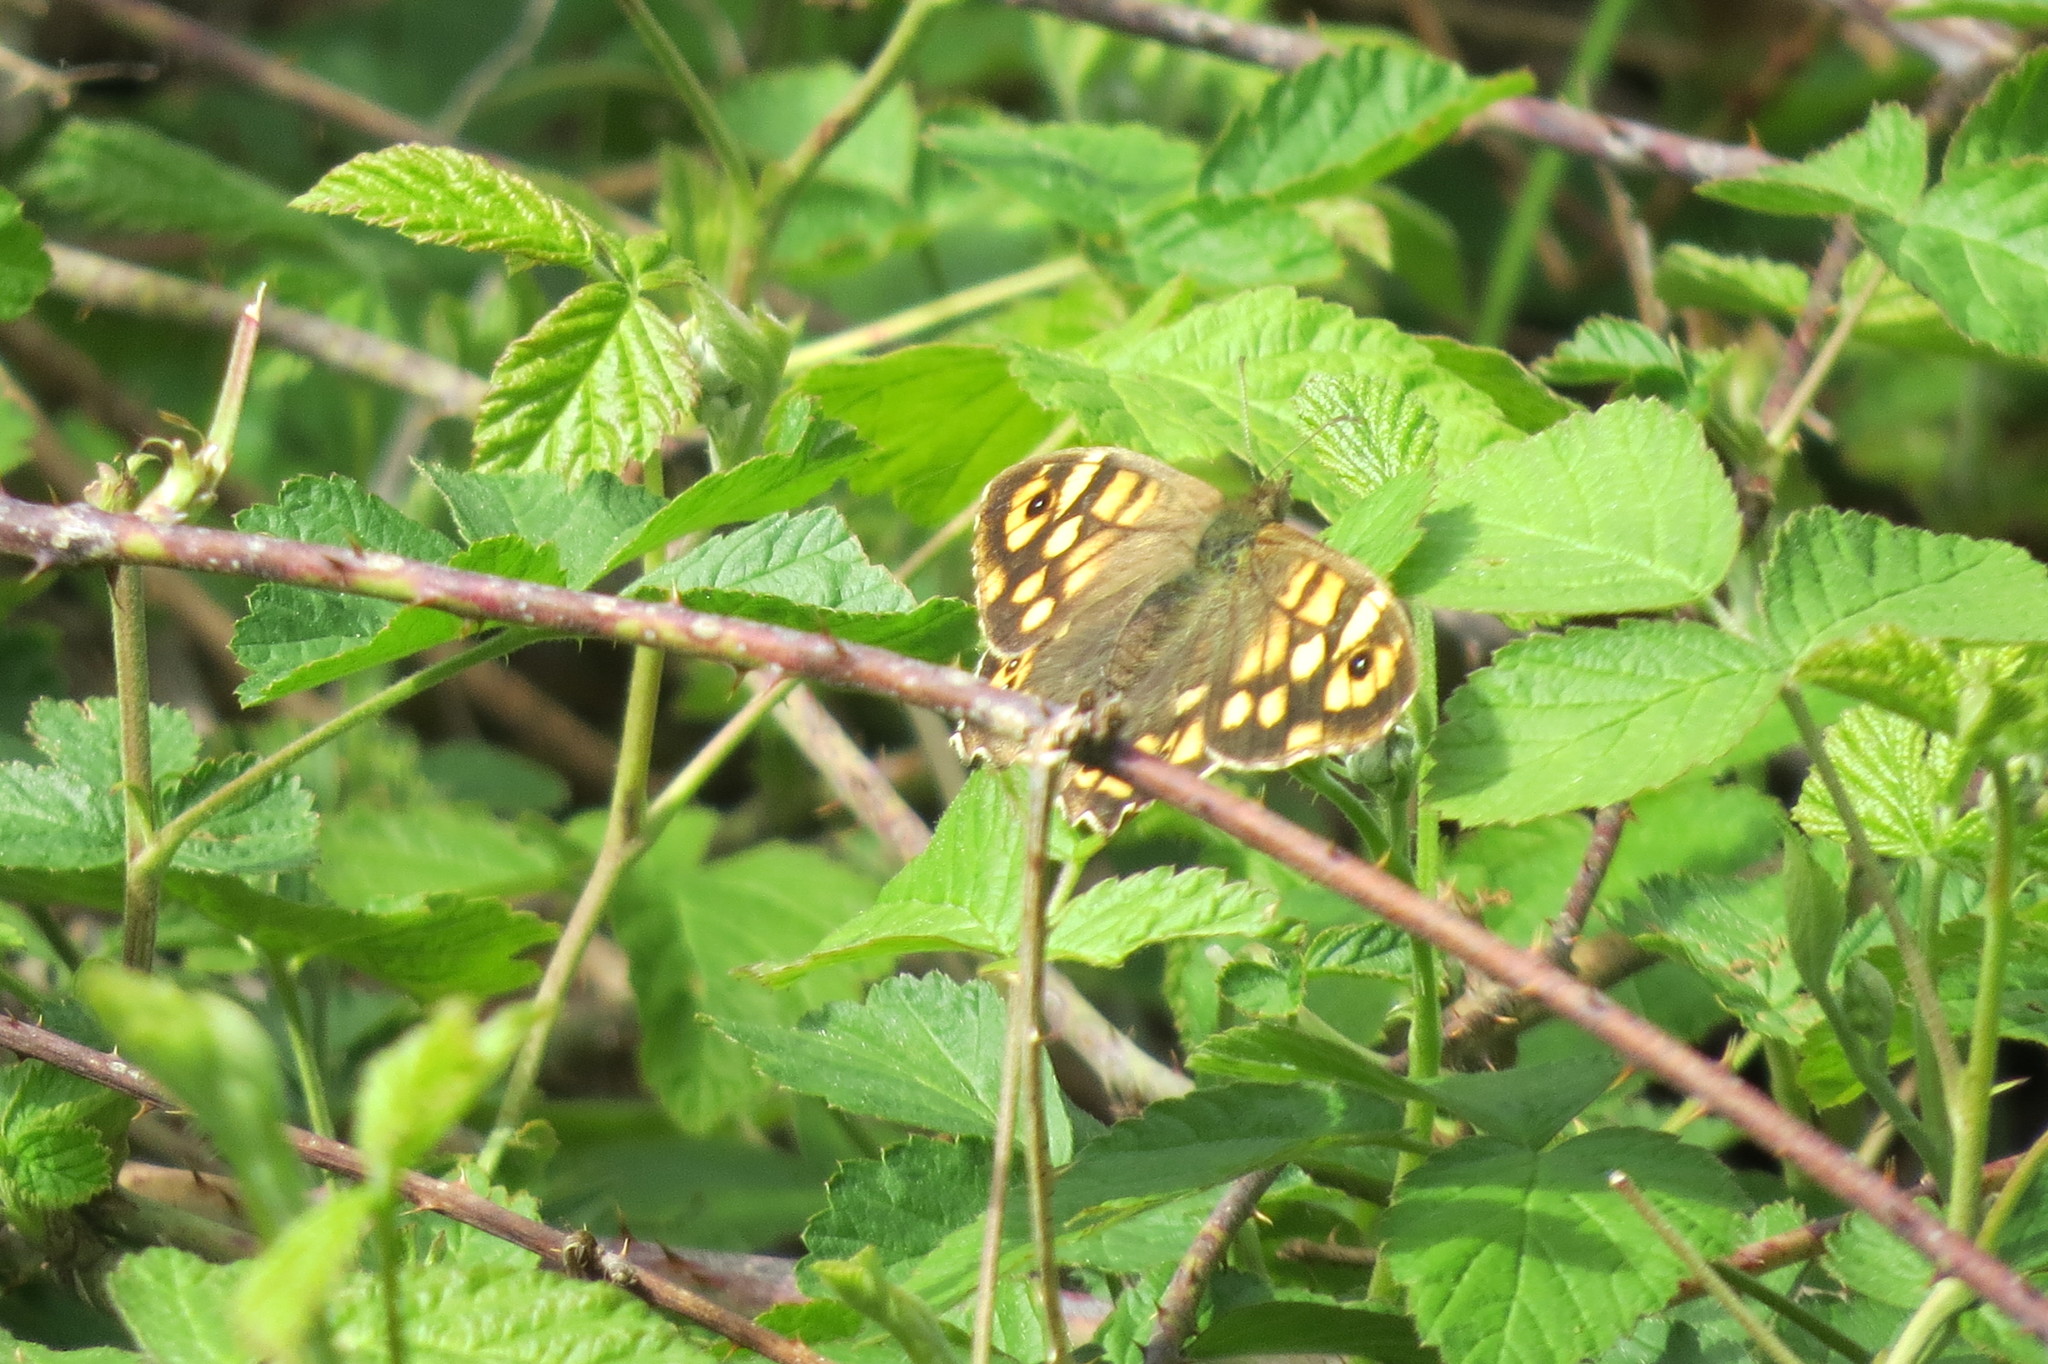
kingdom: Animalia
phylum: Arthropoda
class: Insecta
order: Lepidoptera
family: Nymphalidae
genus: Pararge
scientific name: Pararge aegeria
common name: Speckled wood
